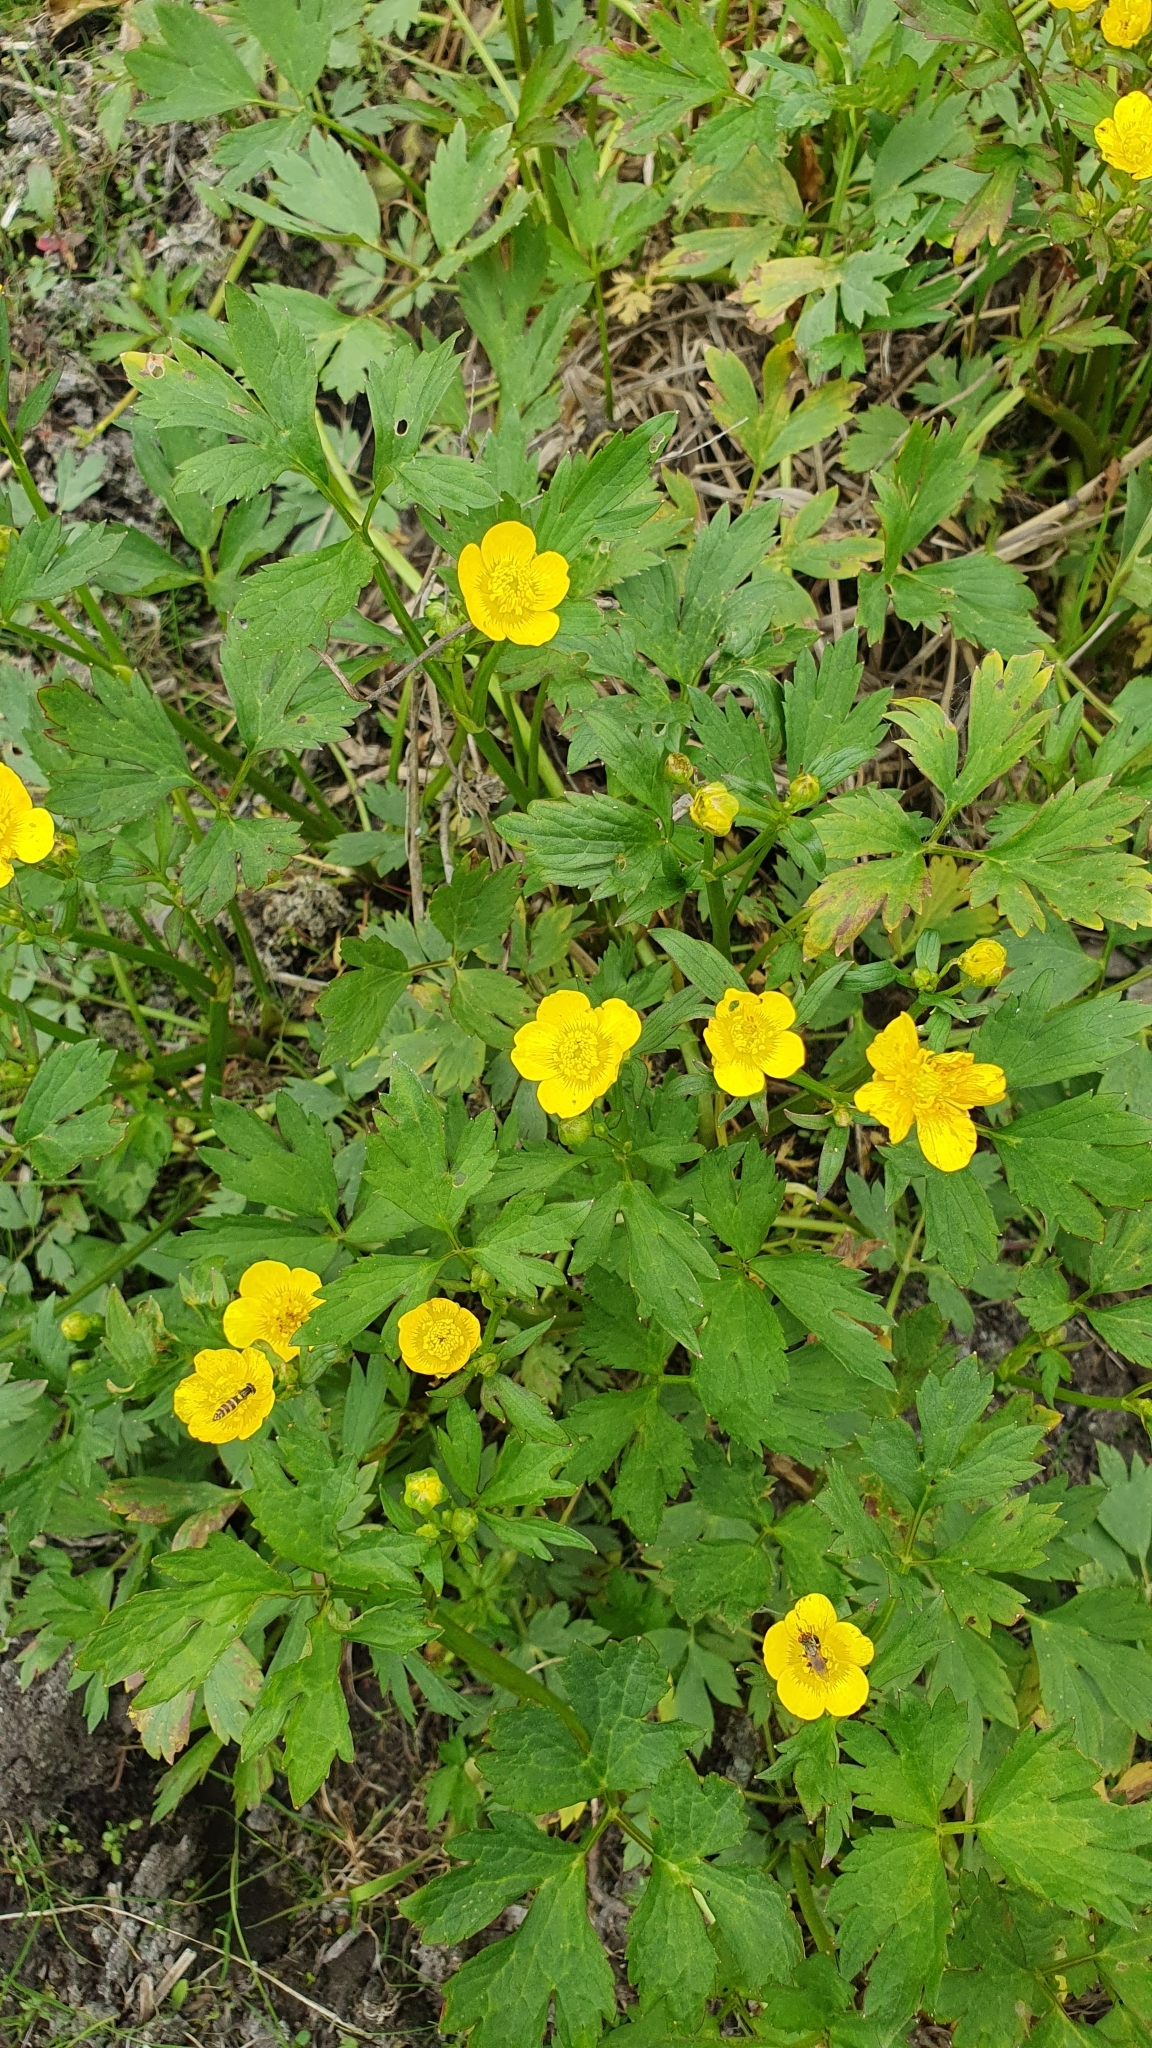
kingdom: Plantae
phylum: Tracheophyta
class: Magnoliopsida
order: Ranunculales
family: Ranunculaceae
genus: Ranunculus
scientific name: Ranunculus repens
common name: Creeping buttercup
